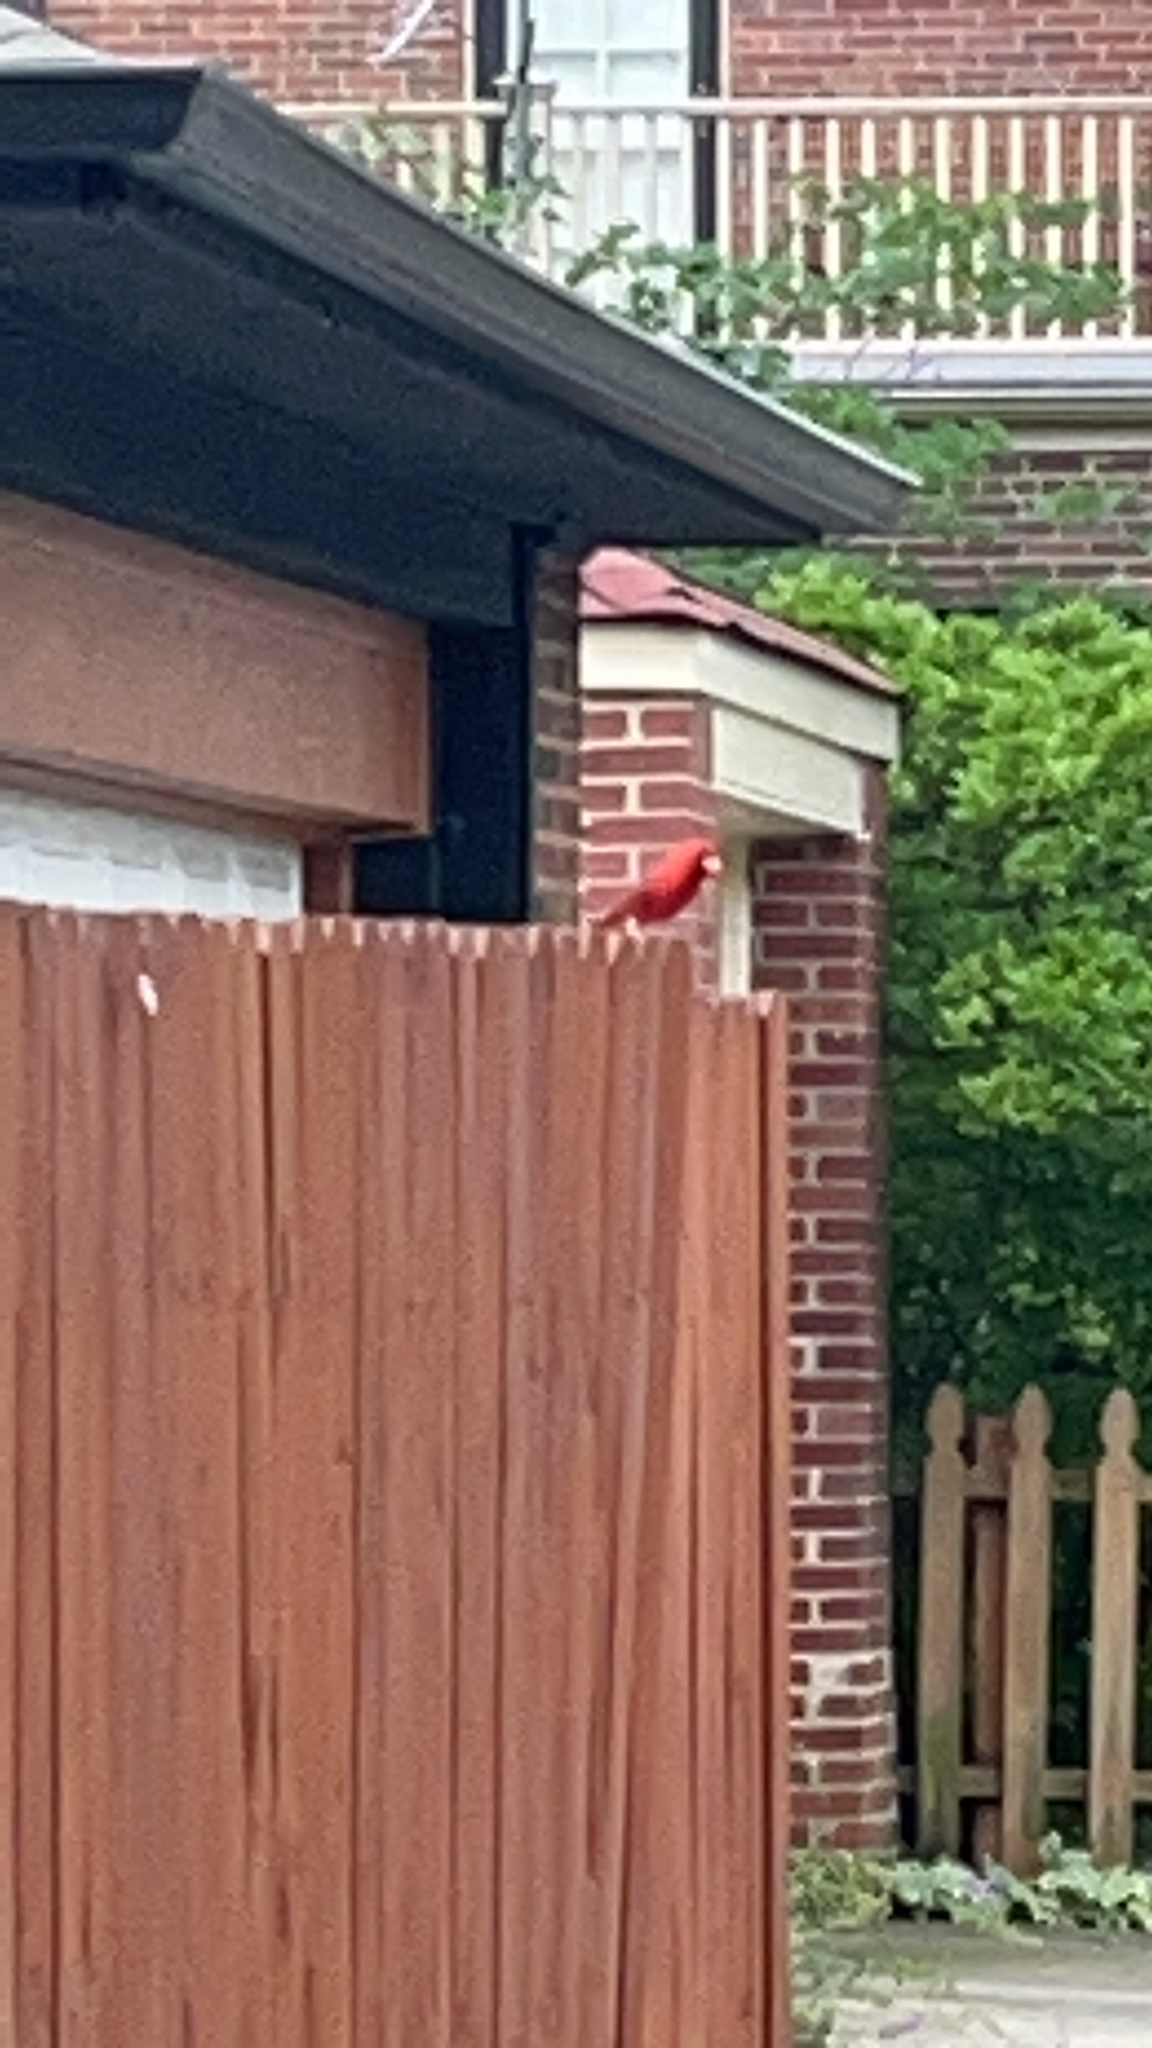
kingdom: Animalia
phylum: Chordata
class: Aves
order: Passeriformes
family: Cardinalidae
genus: Cardinalis
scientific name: Cardinalis cardinalis
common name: Northern cardinal
